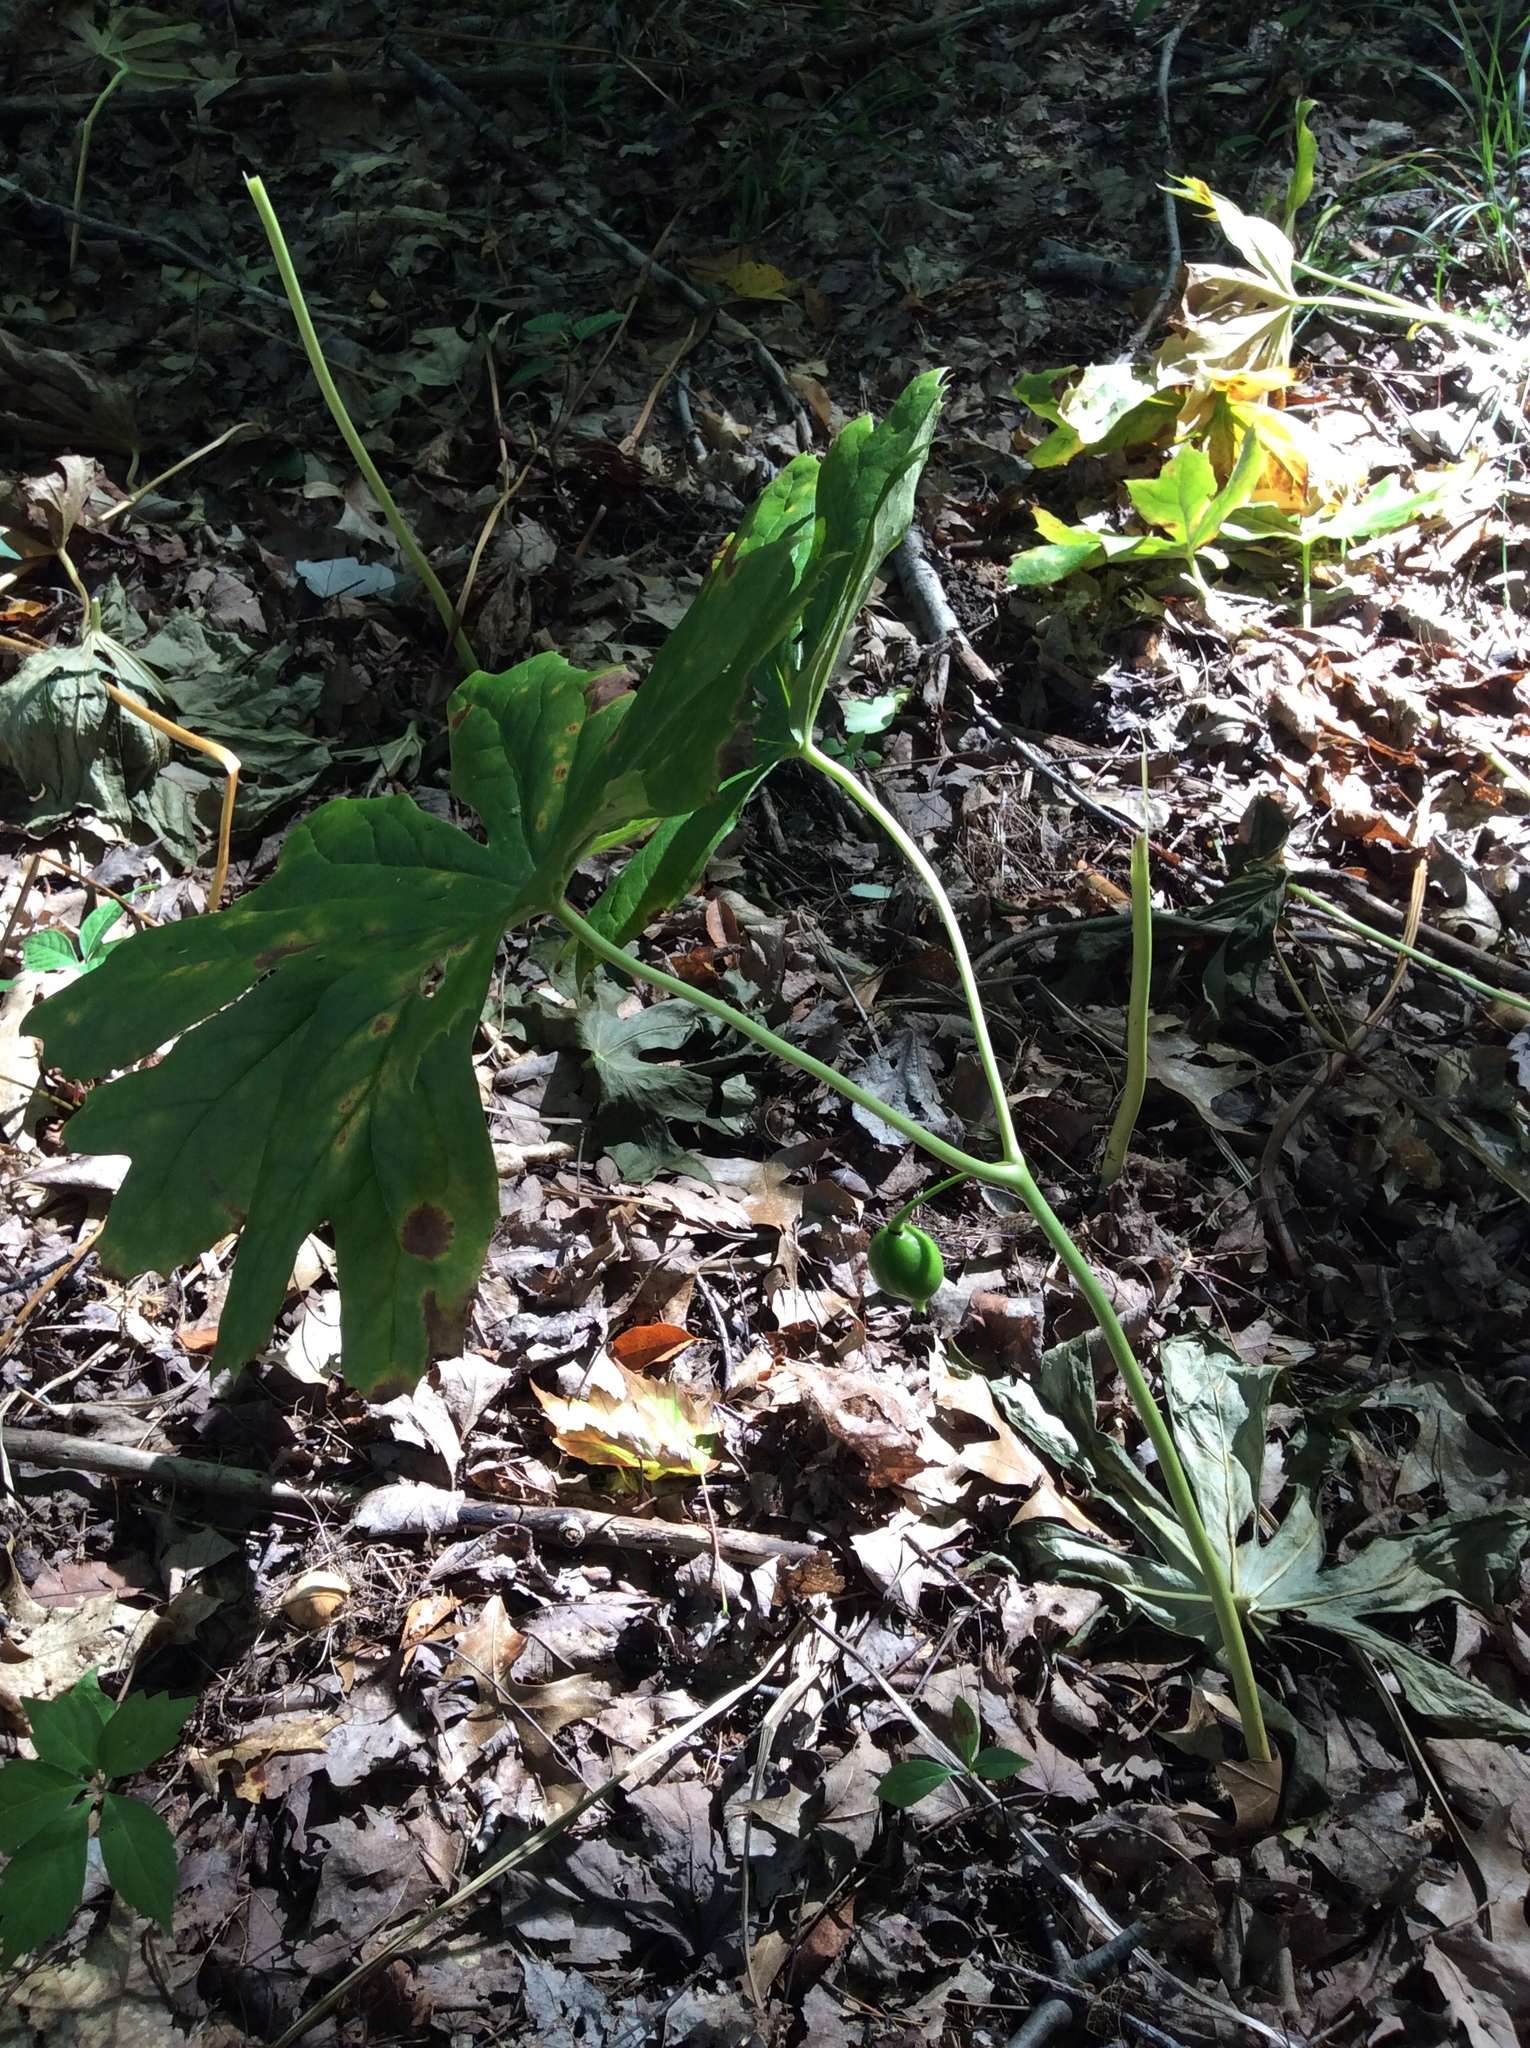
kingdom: Plantae
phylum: Tracheophyta
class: Magnoliopsida
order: Ranunculales
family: Berberidaceae
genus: Podophyllum
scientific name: Podophyllum peltatum
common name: Wild mandrake
